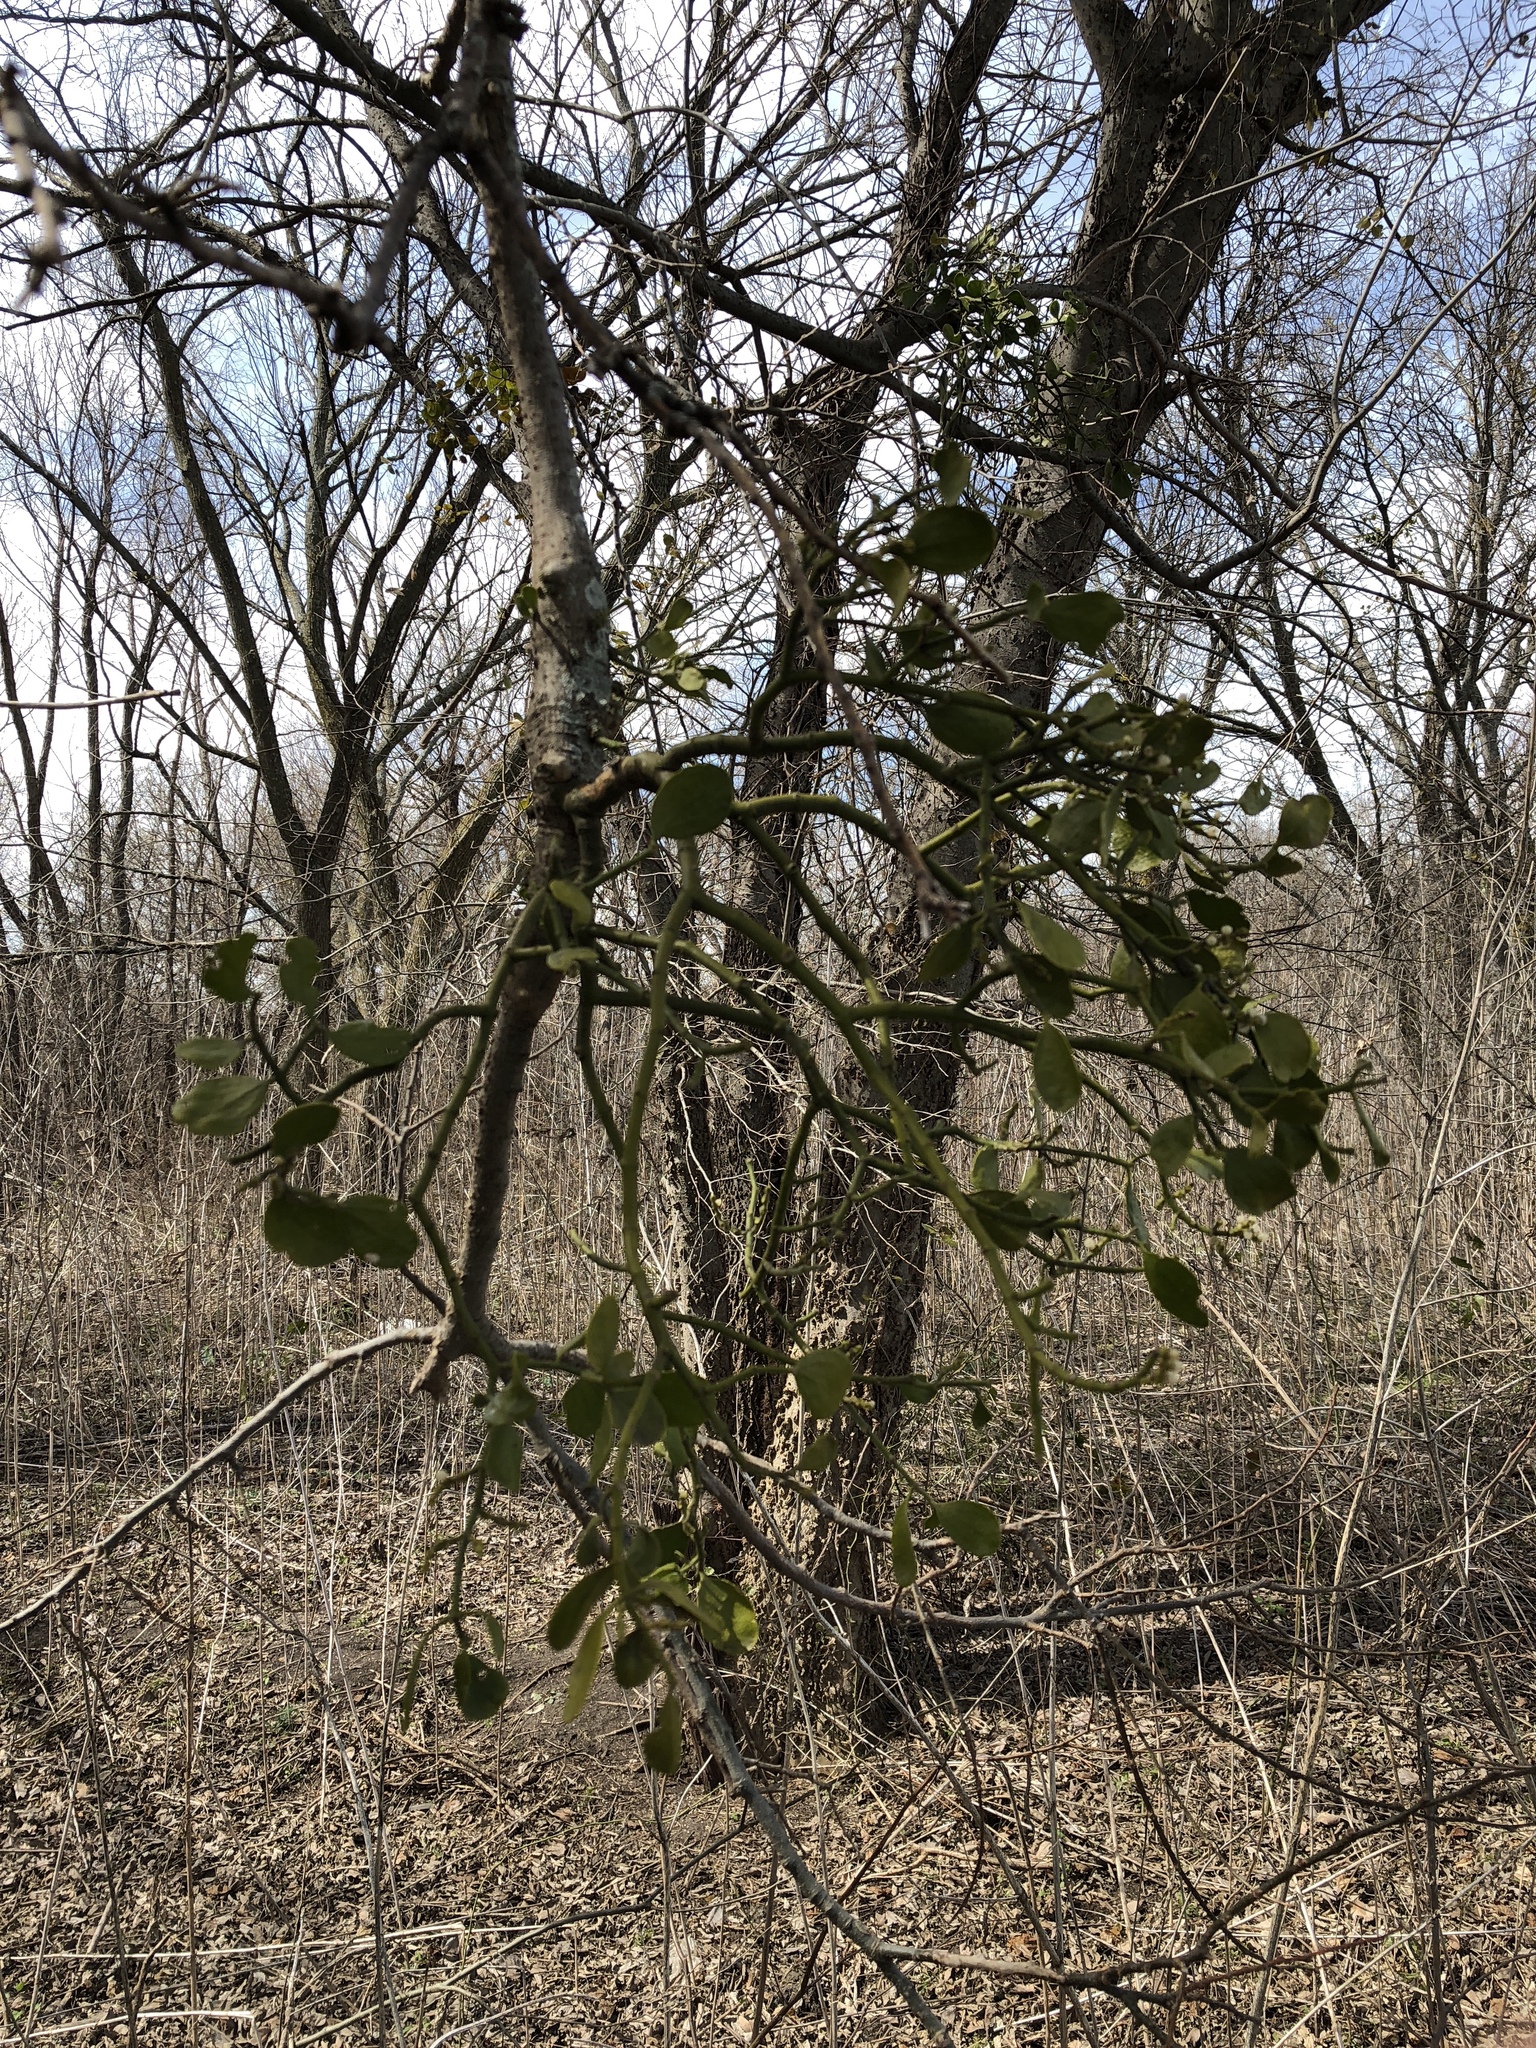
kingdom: Plantae
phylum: Tracheophyta
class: Magnoliopsida
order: Santalales
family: Viscaceae
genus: Phoradendron
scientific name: Phoradendron leucarpum
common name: Pacific mistletoe
